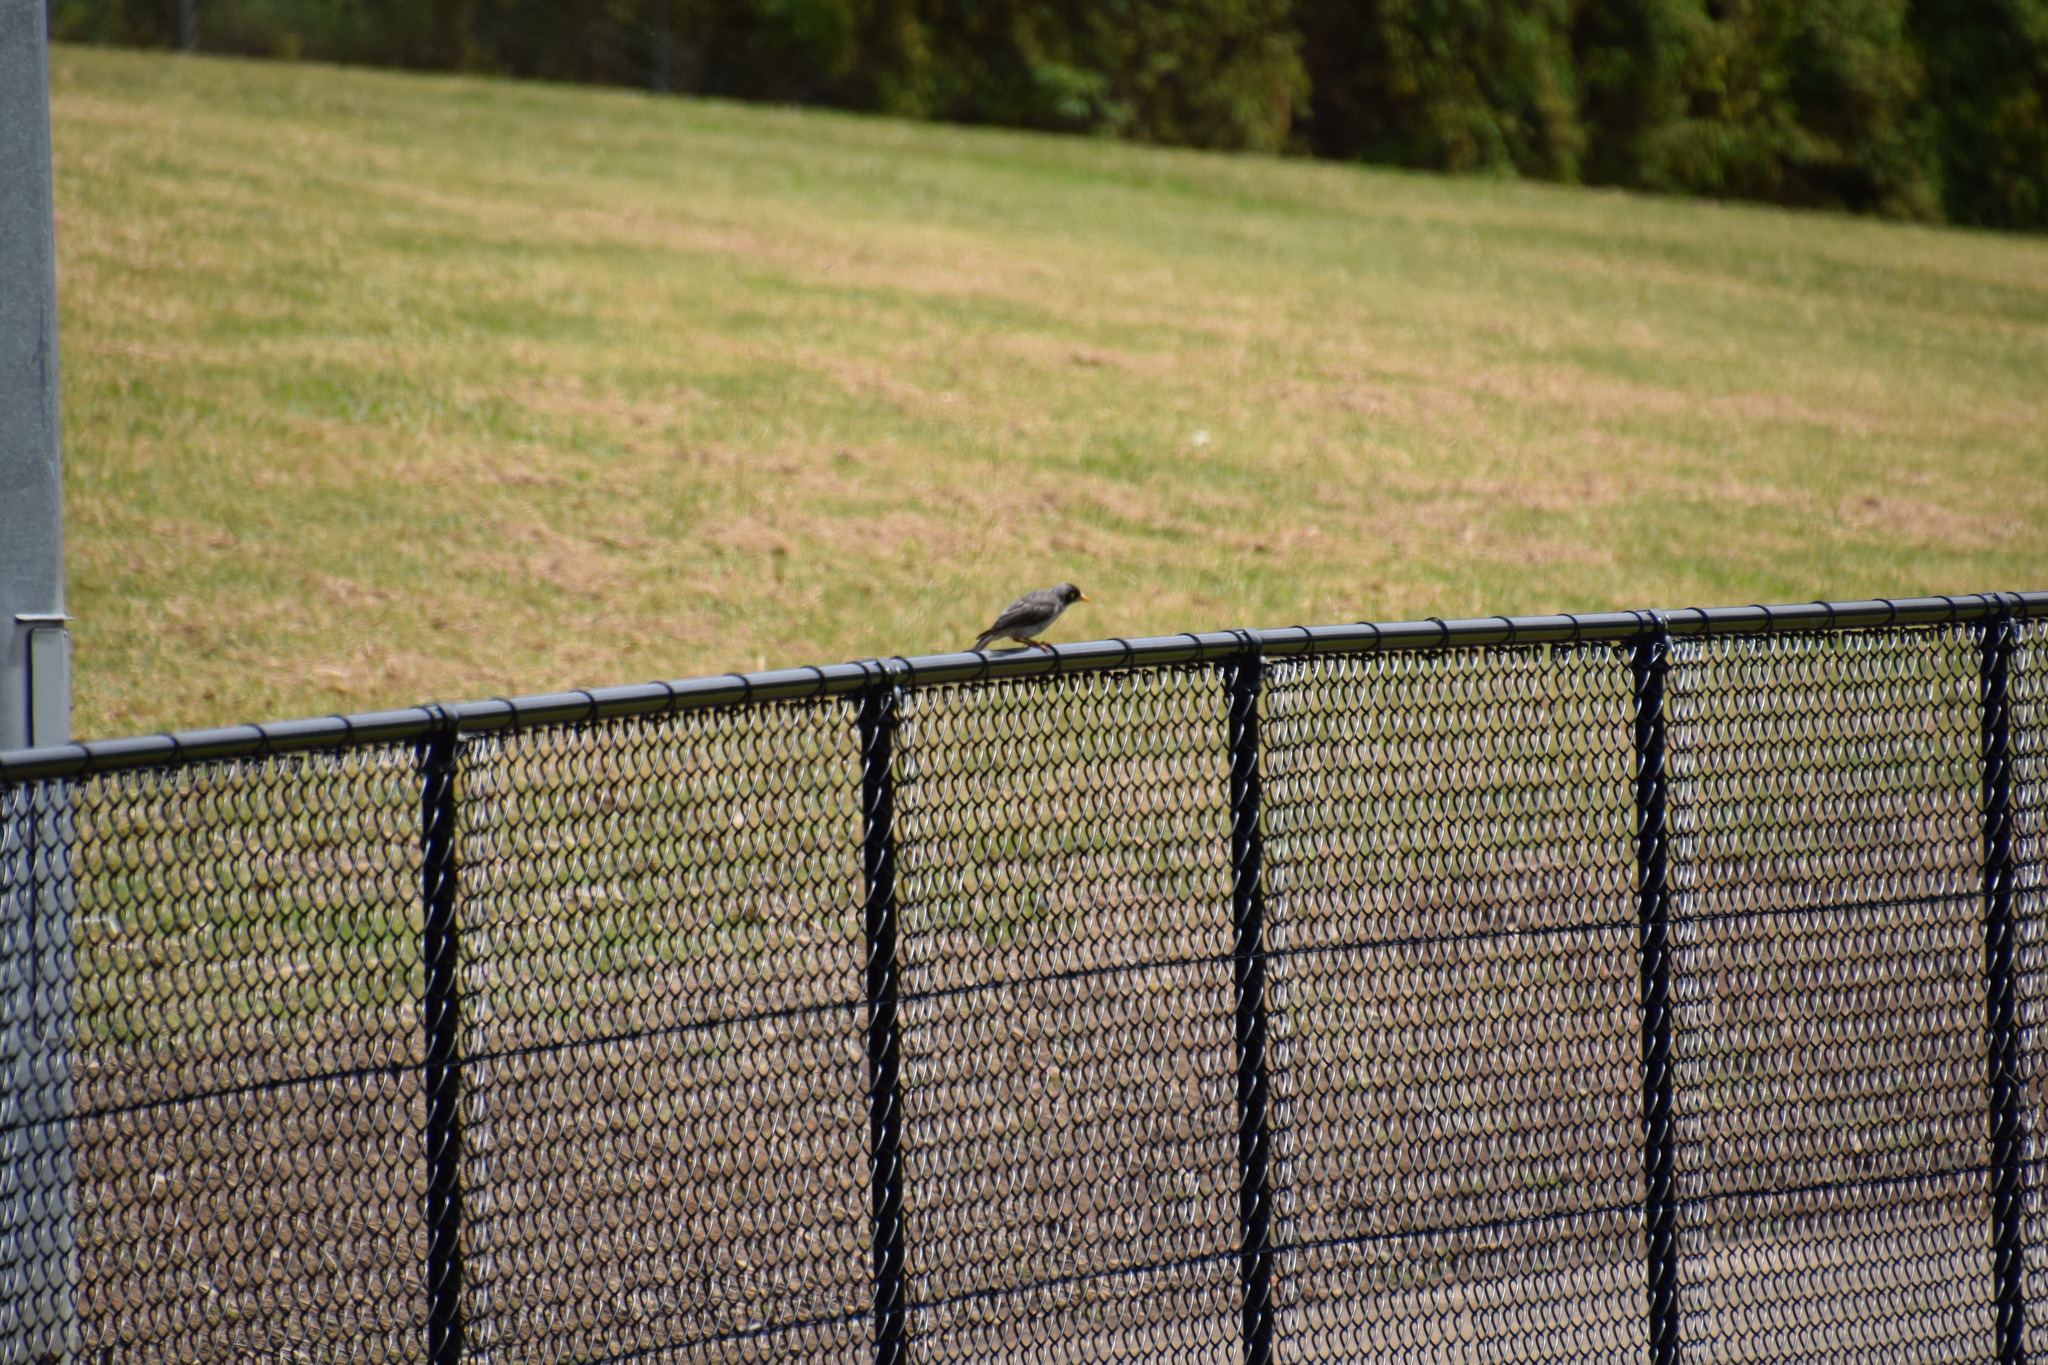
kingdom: Animalia
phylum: Chordata
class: Aves
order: Passeriformes
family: Meliphagidae
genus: Manorina
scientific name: Manorina melanocephala
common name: Noisy miner
